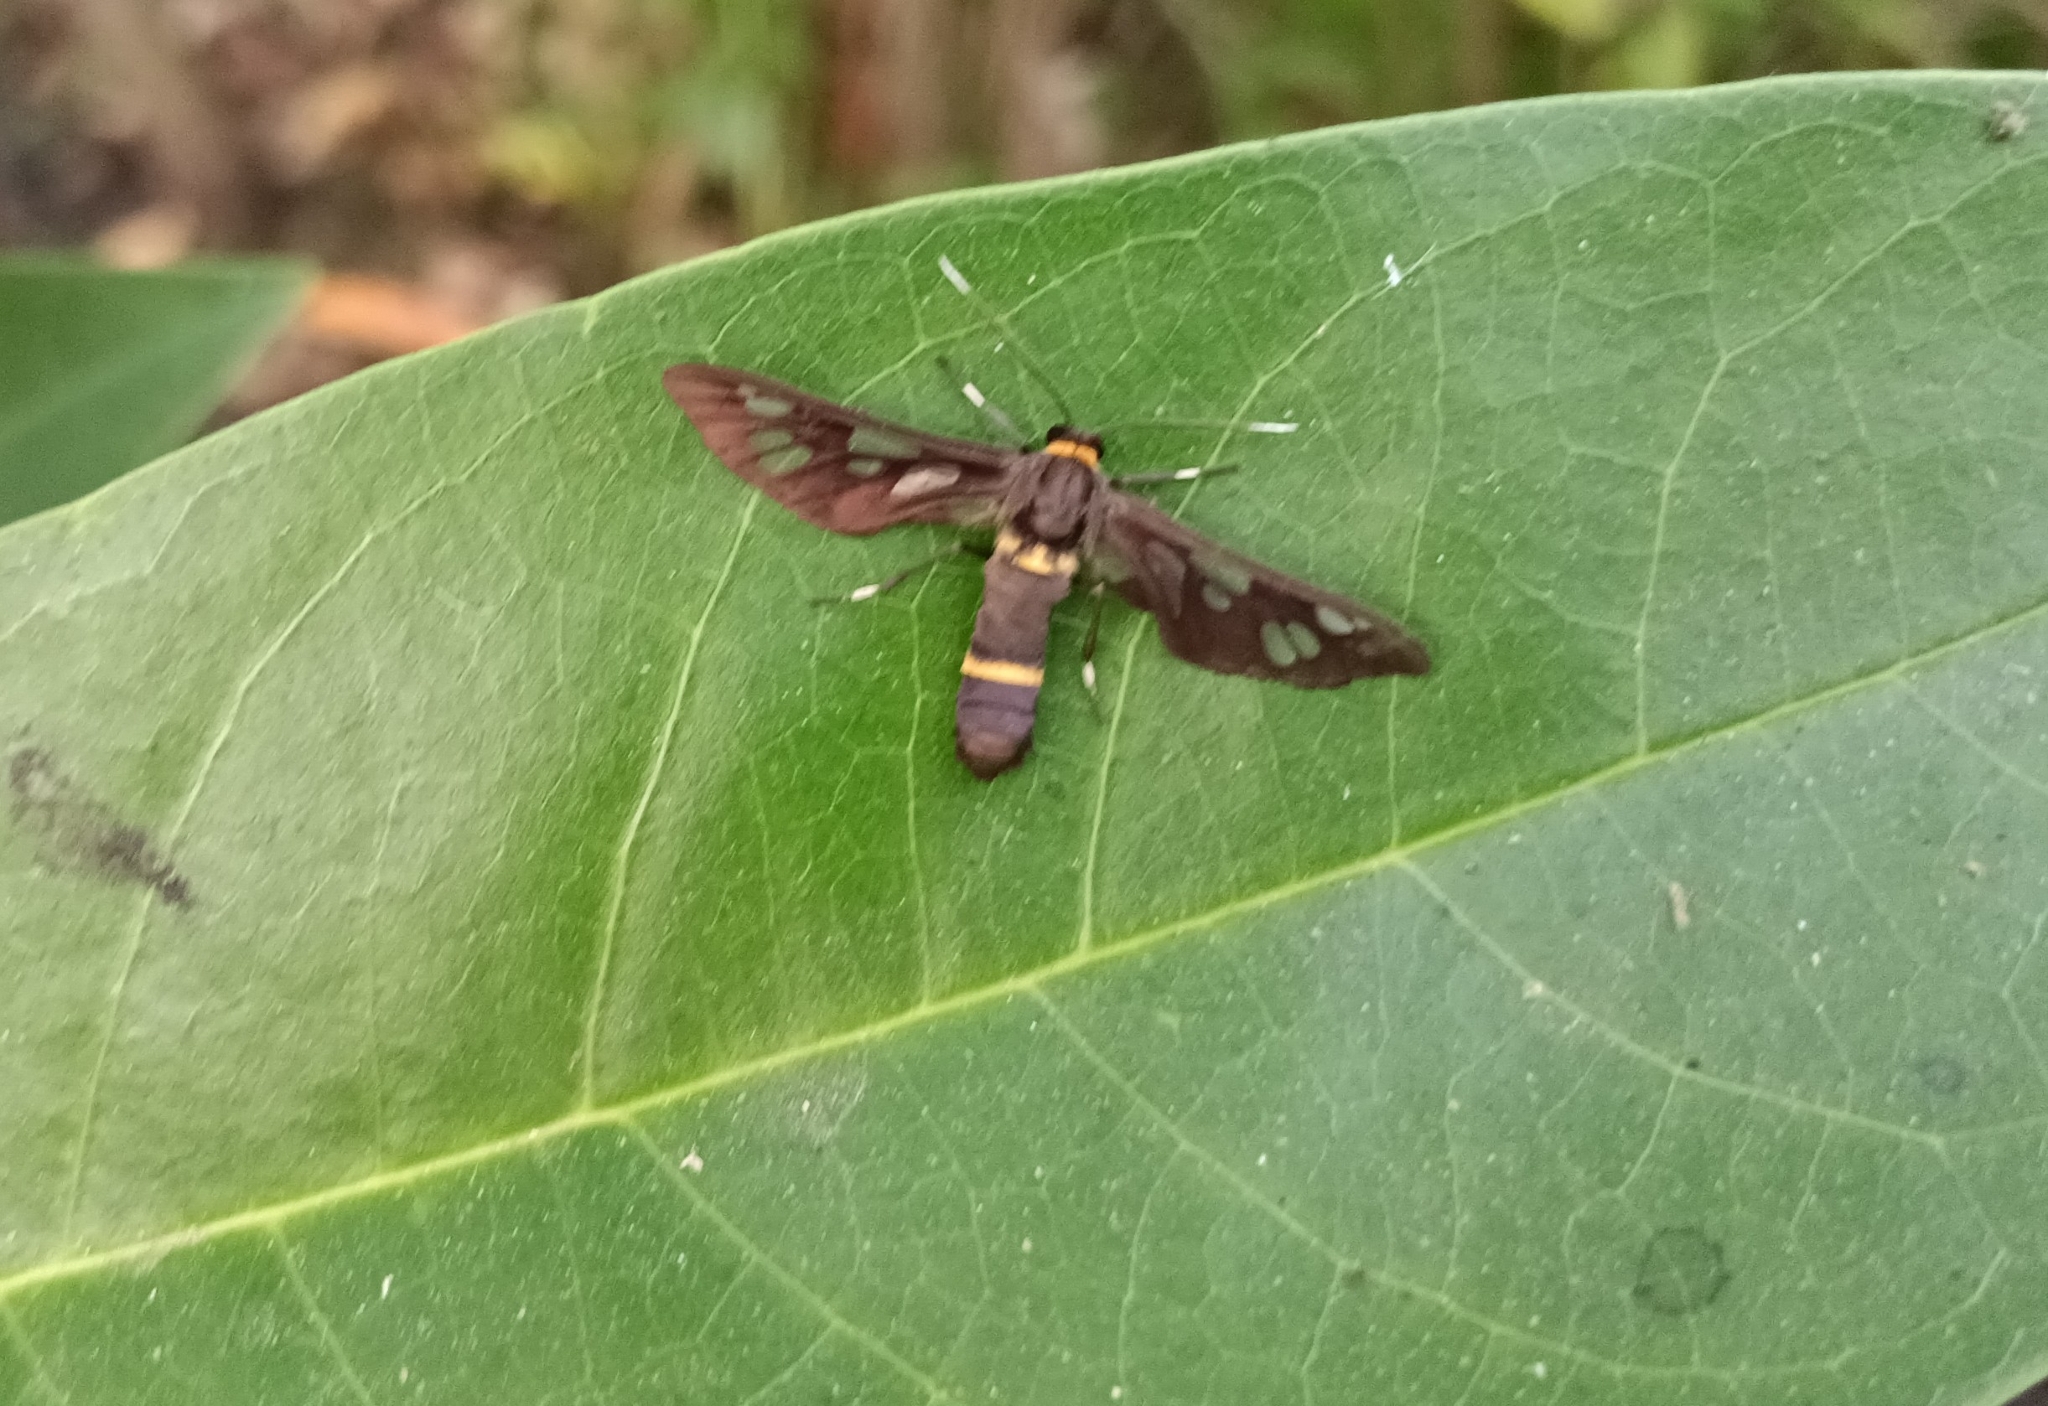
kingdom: Animalia
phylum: Arthropoda
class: Insecta
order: Lepidoptera
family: Erebidae
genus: Syntomoides
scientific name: Syntomoides imaon
